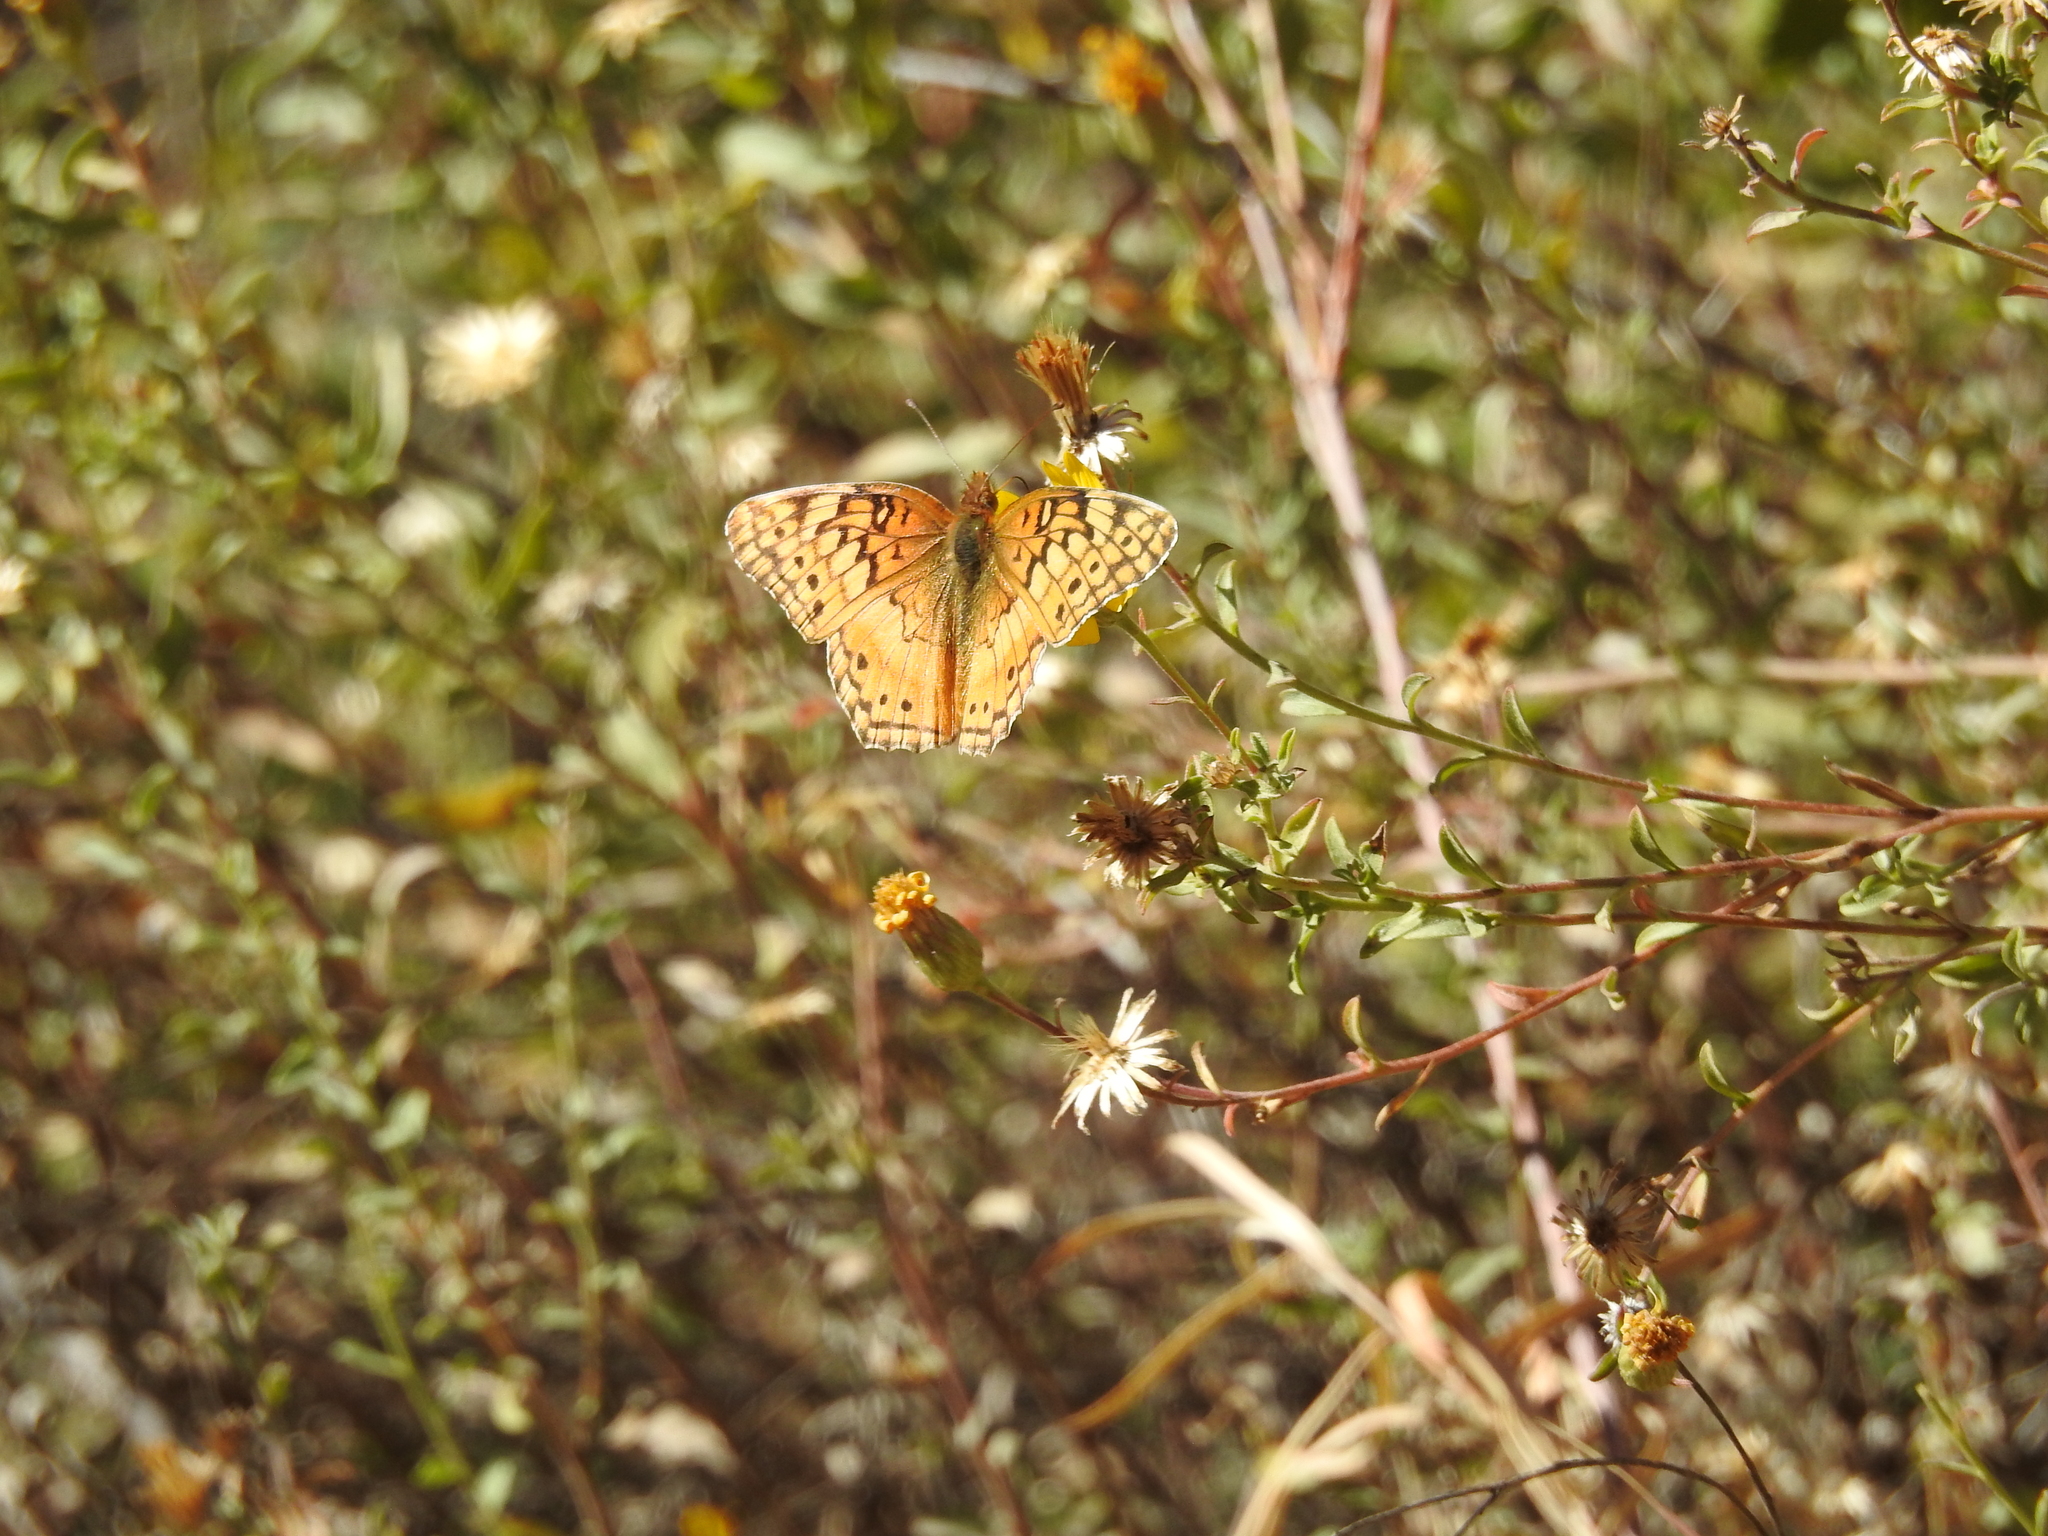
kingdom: Animalia
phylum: Arthropoda
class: Insecta
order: Lepidoptera
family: Nymphalidae
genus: Euptoieta
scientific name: Euptoieta claudia
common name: Variegated fritillary
